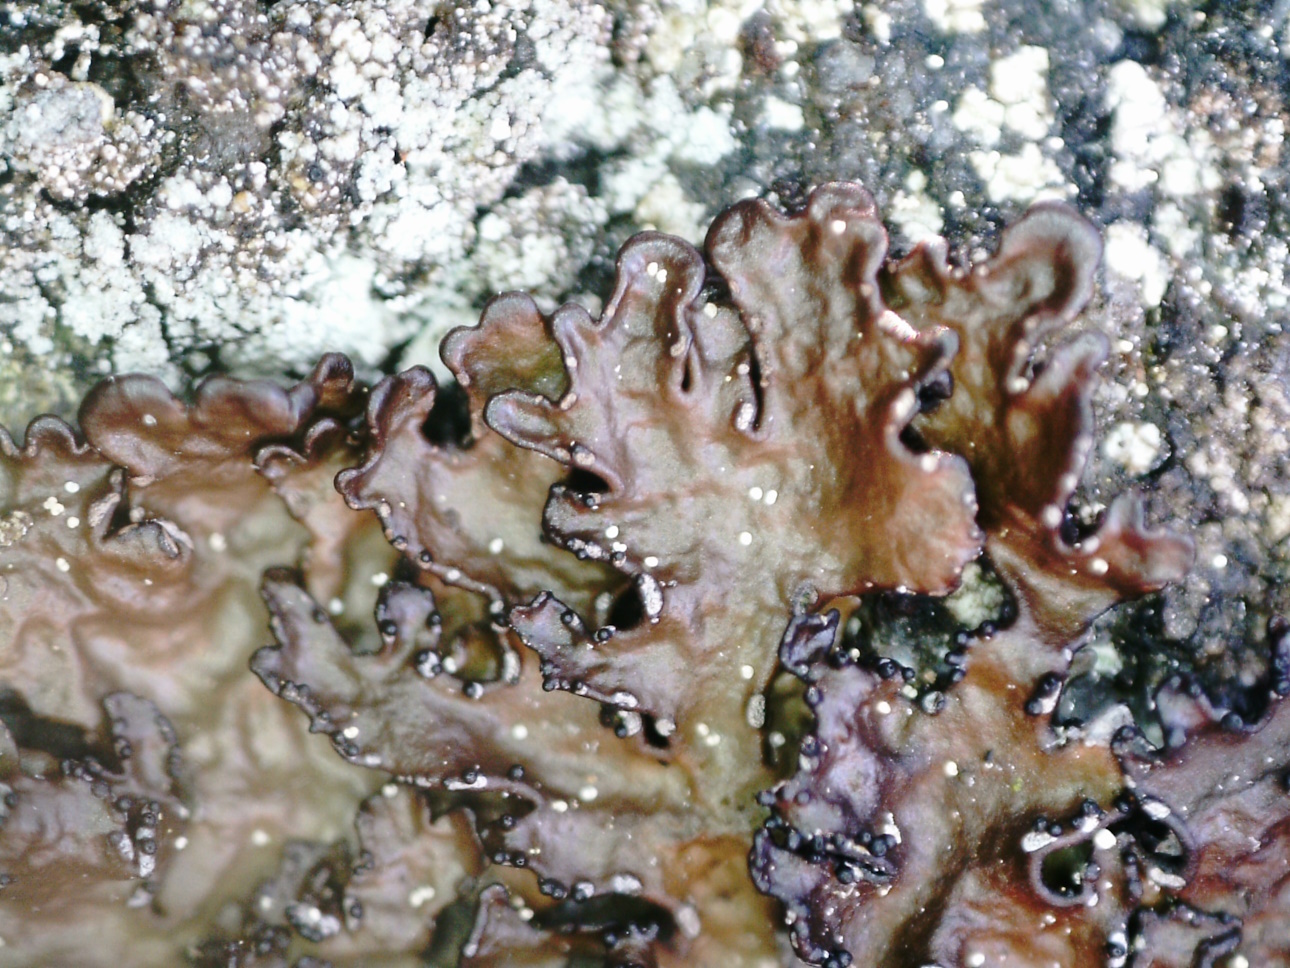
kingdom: Fungi
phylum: Ascomycota
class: Lecanoromycetes
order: Lecanorales
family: Parmeliaceae
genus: Melanelia
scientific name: Melanelia hepatizon
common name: Rimmed camouflage lichen
